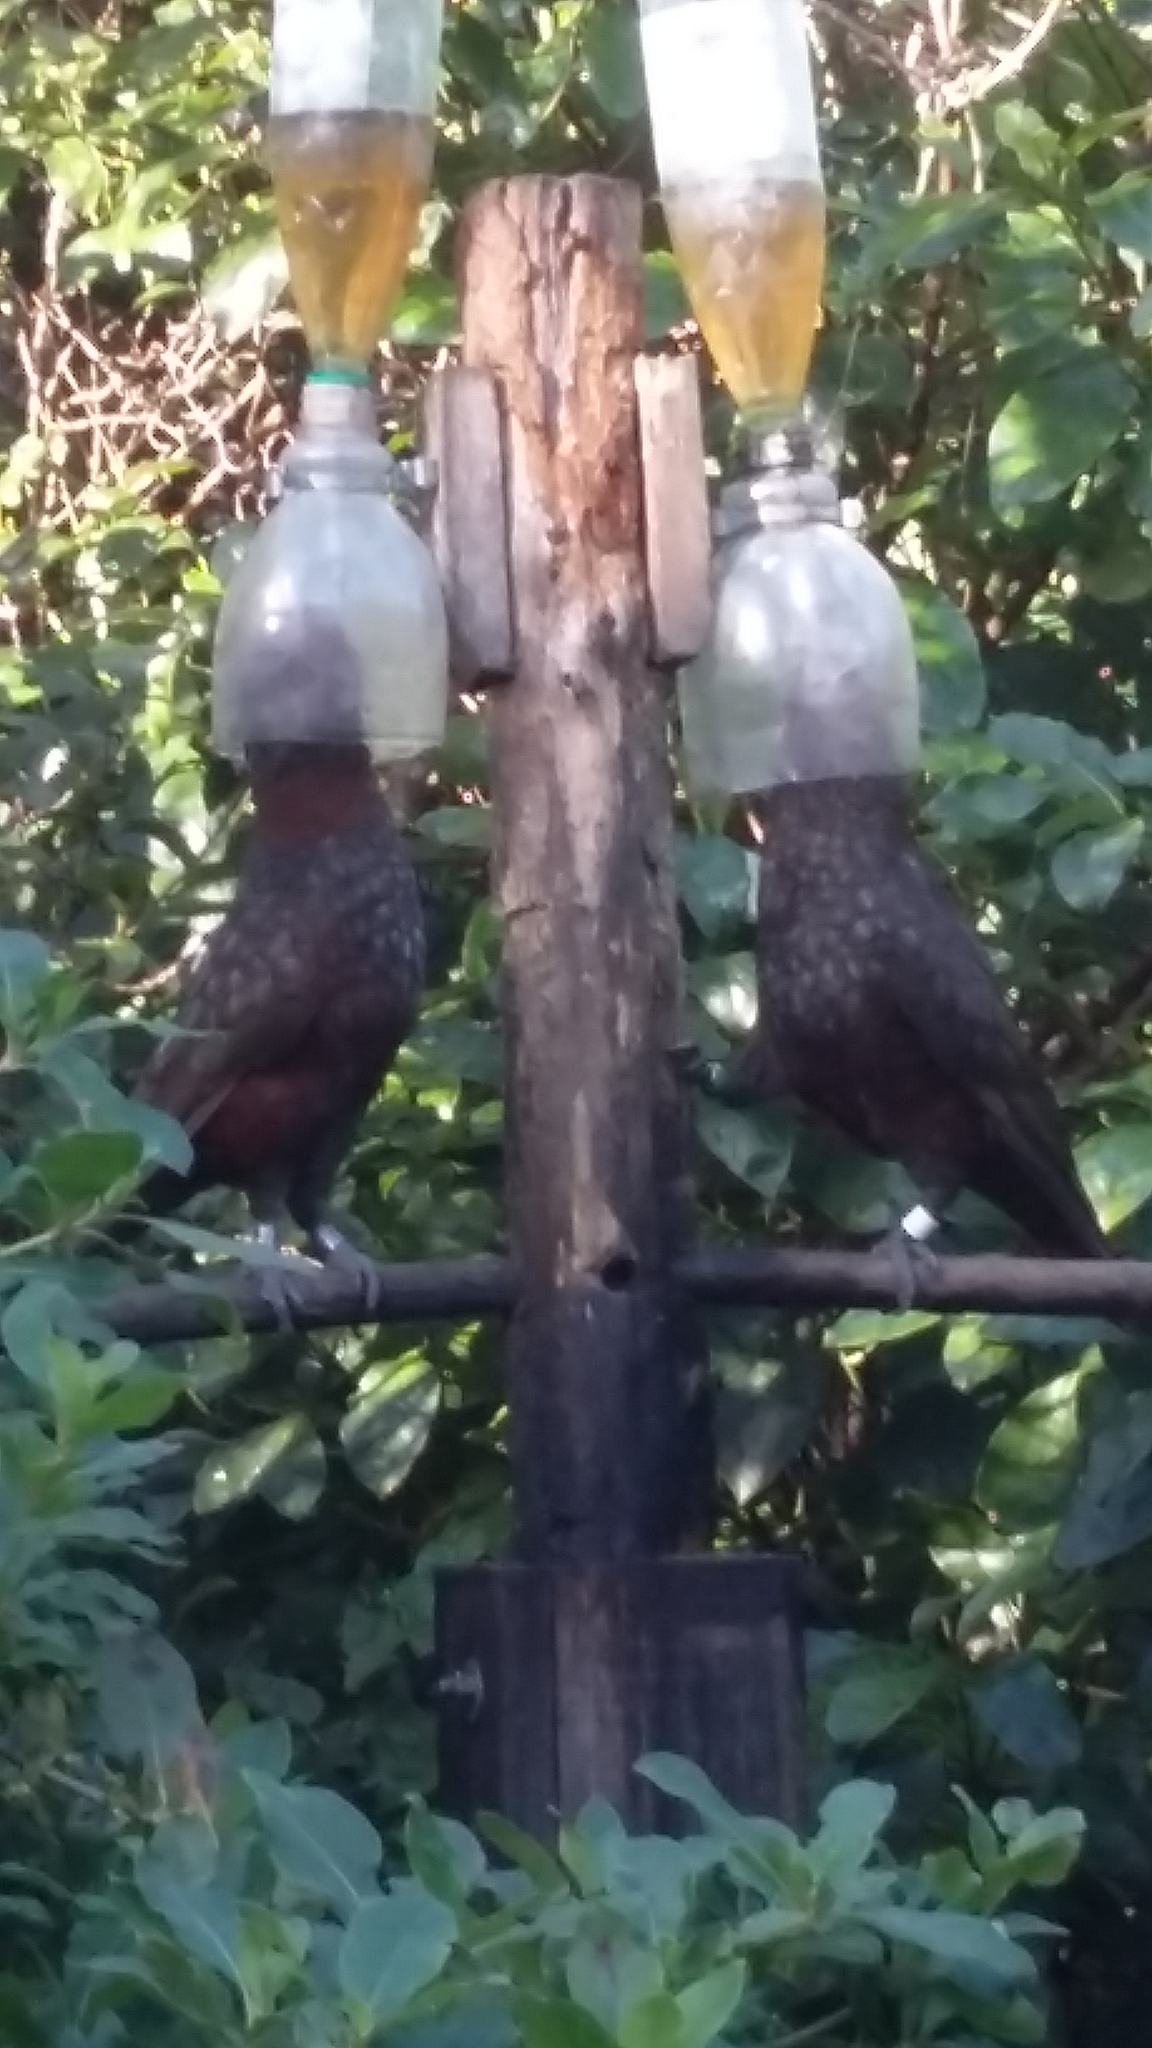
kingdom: Animalia
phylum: Chordata
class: Aves
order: Psittaciformes
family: Psittacidae
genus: Nestor
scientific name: Nestor meridionalis
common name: New zealand kaka
